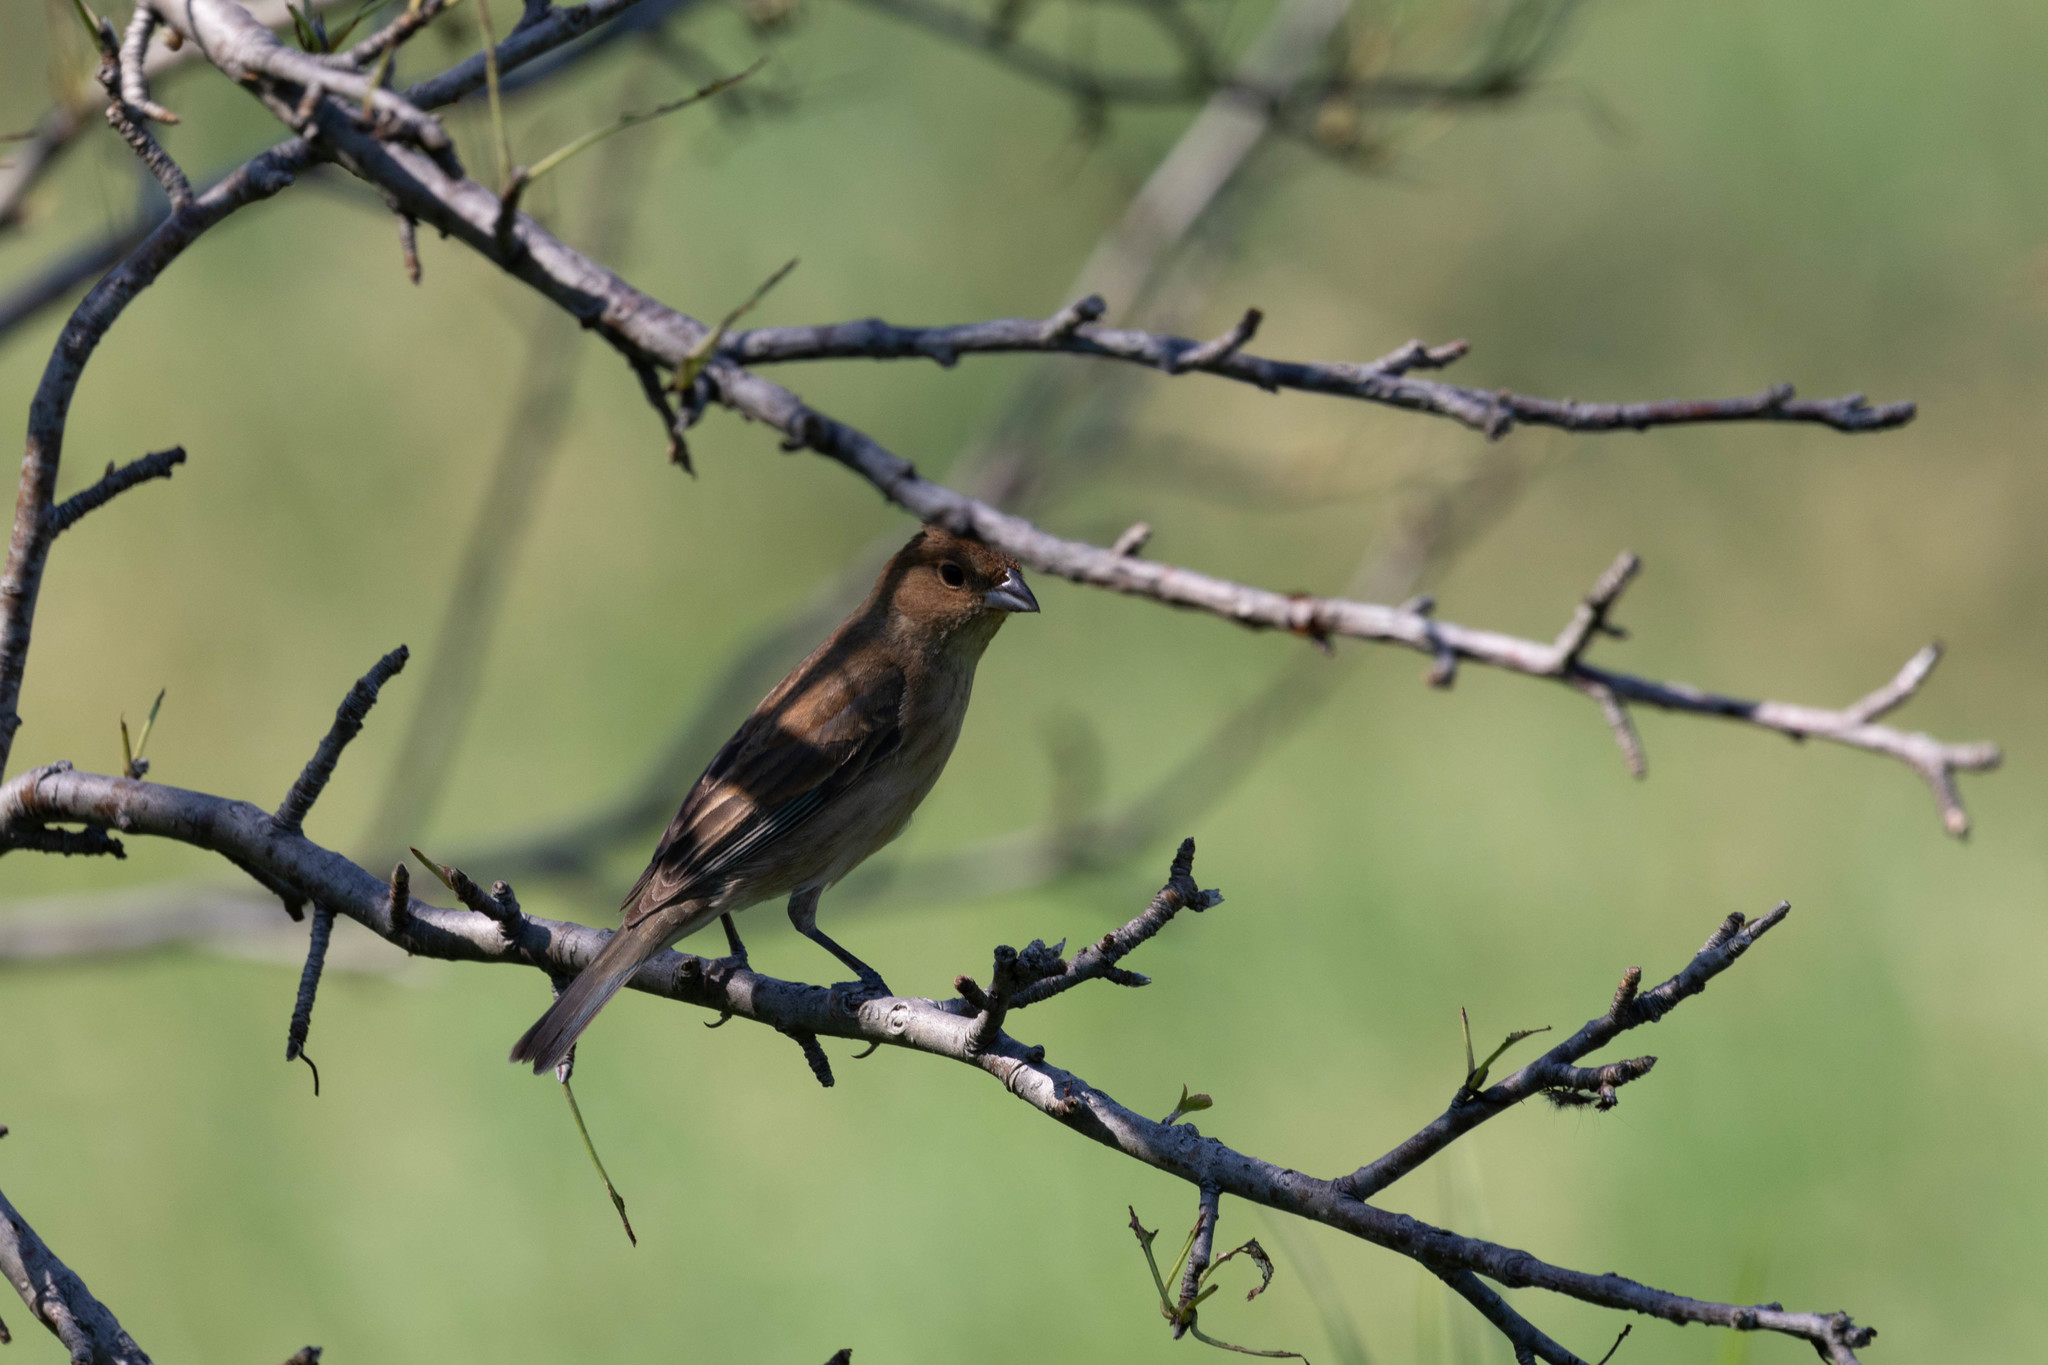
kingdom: Animalia
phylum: Chordata
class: Aves
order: Passeriformes
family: Cardinalidae
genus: Passerina
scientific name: Passerina cyanea
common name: Indigo bunting
